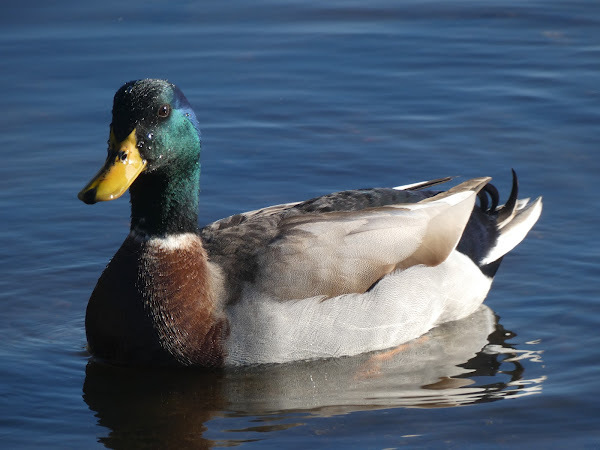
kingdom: Animalia
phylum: Chordata
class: Aves
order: Anseriformes
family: Anatidae
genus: Anas
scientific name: Anas platyrhynchos
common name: Mallard
